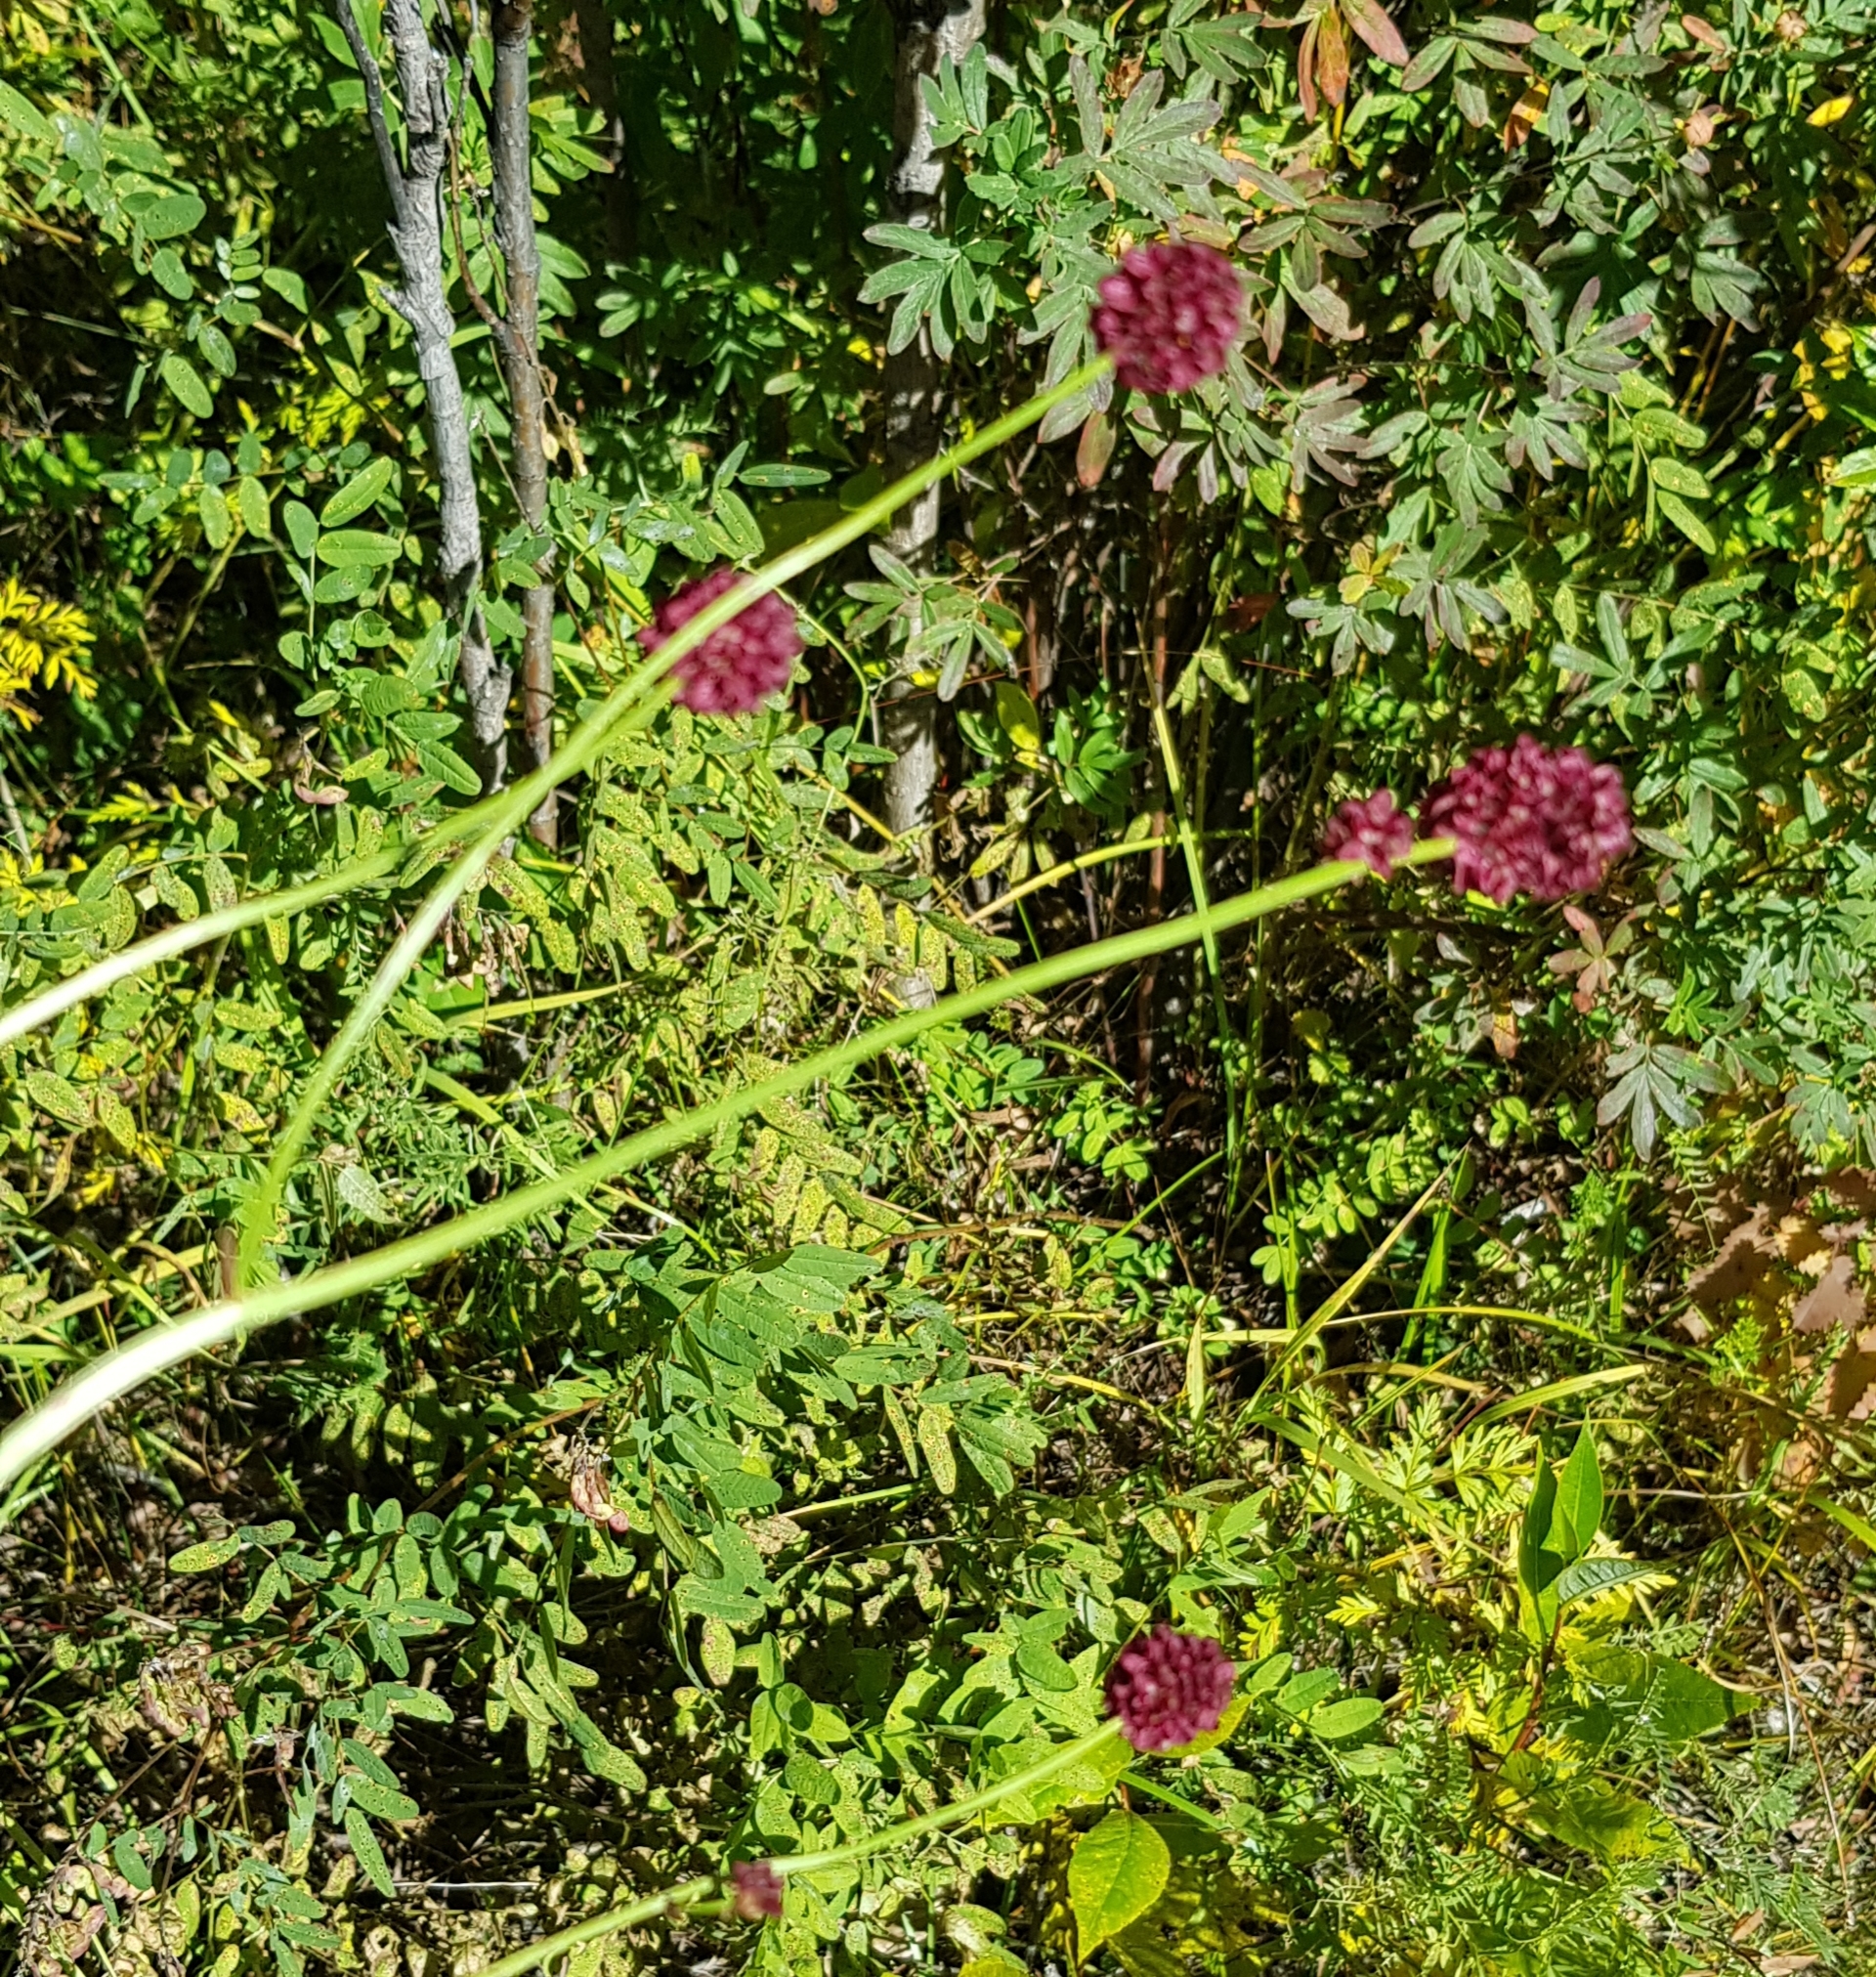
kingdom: Plantae
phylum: Tracheophyta
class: Magnoliopsida
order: Rosales
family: Rosaceae
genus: Sanguisorba
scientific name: Sanguisorba officinalis
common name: Great burnet
